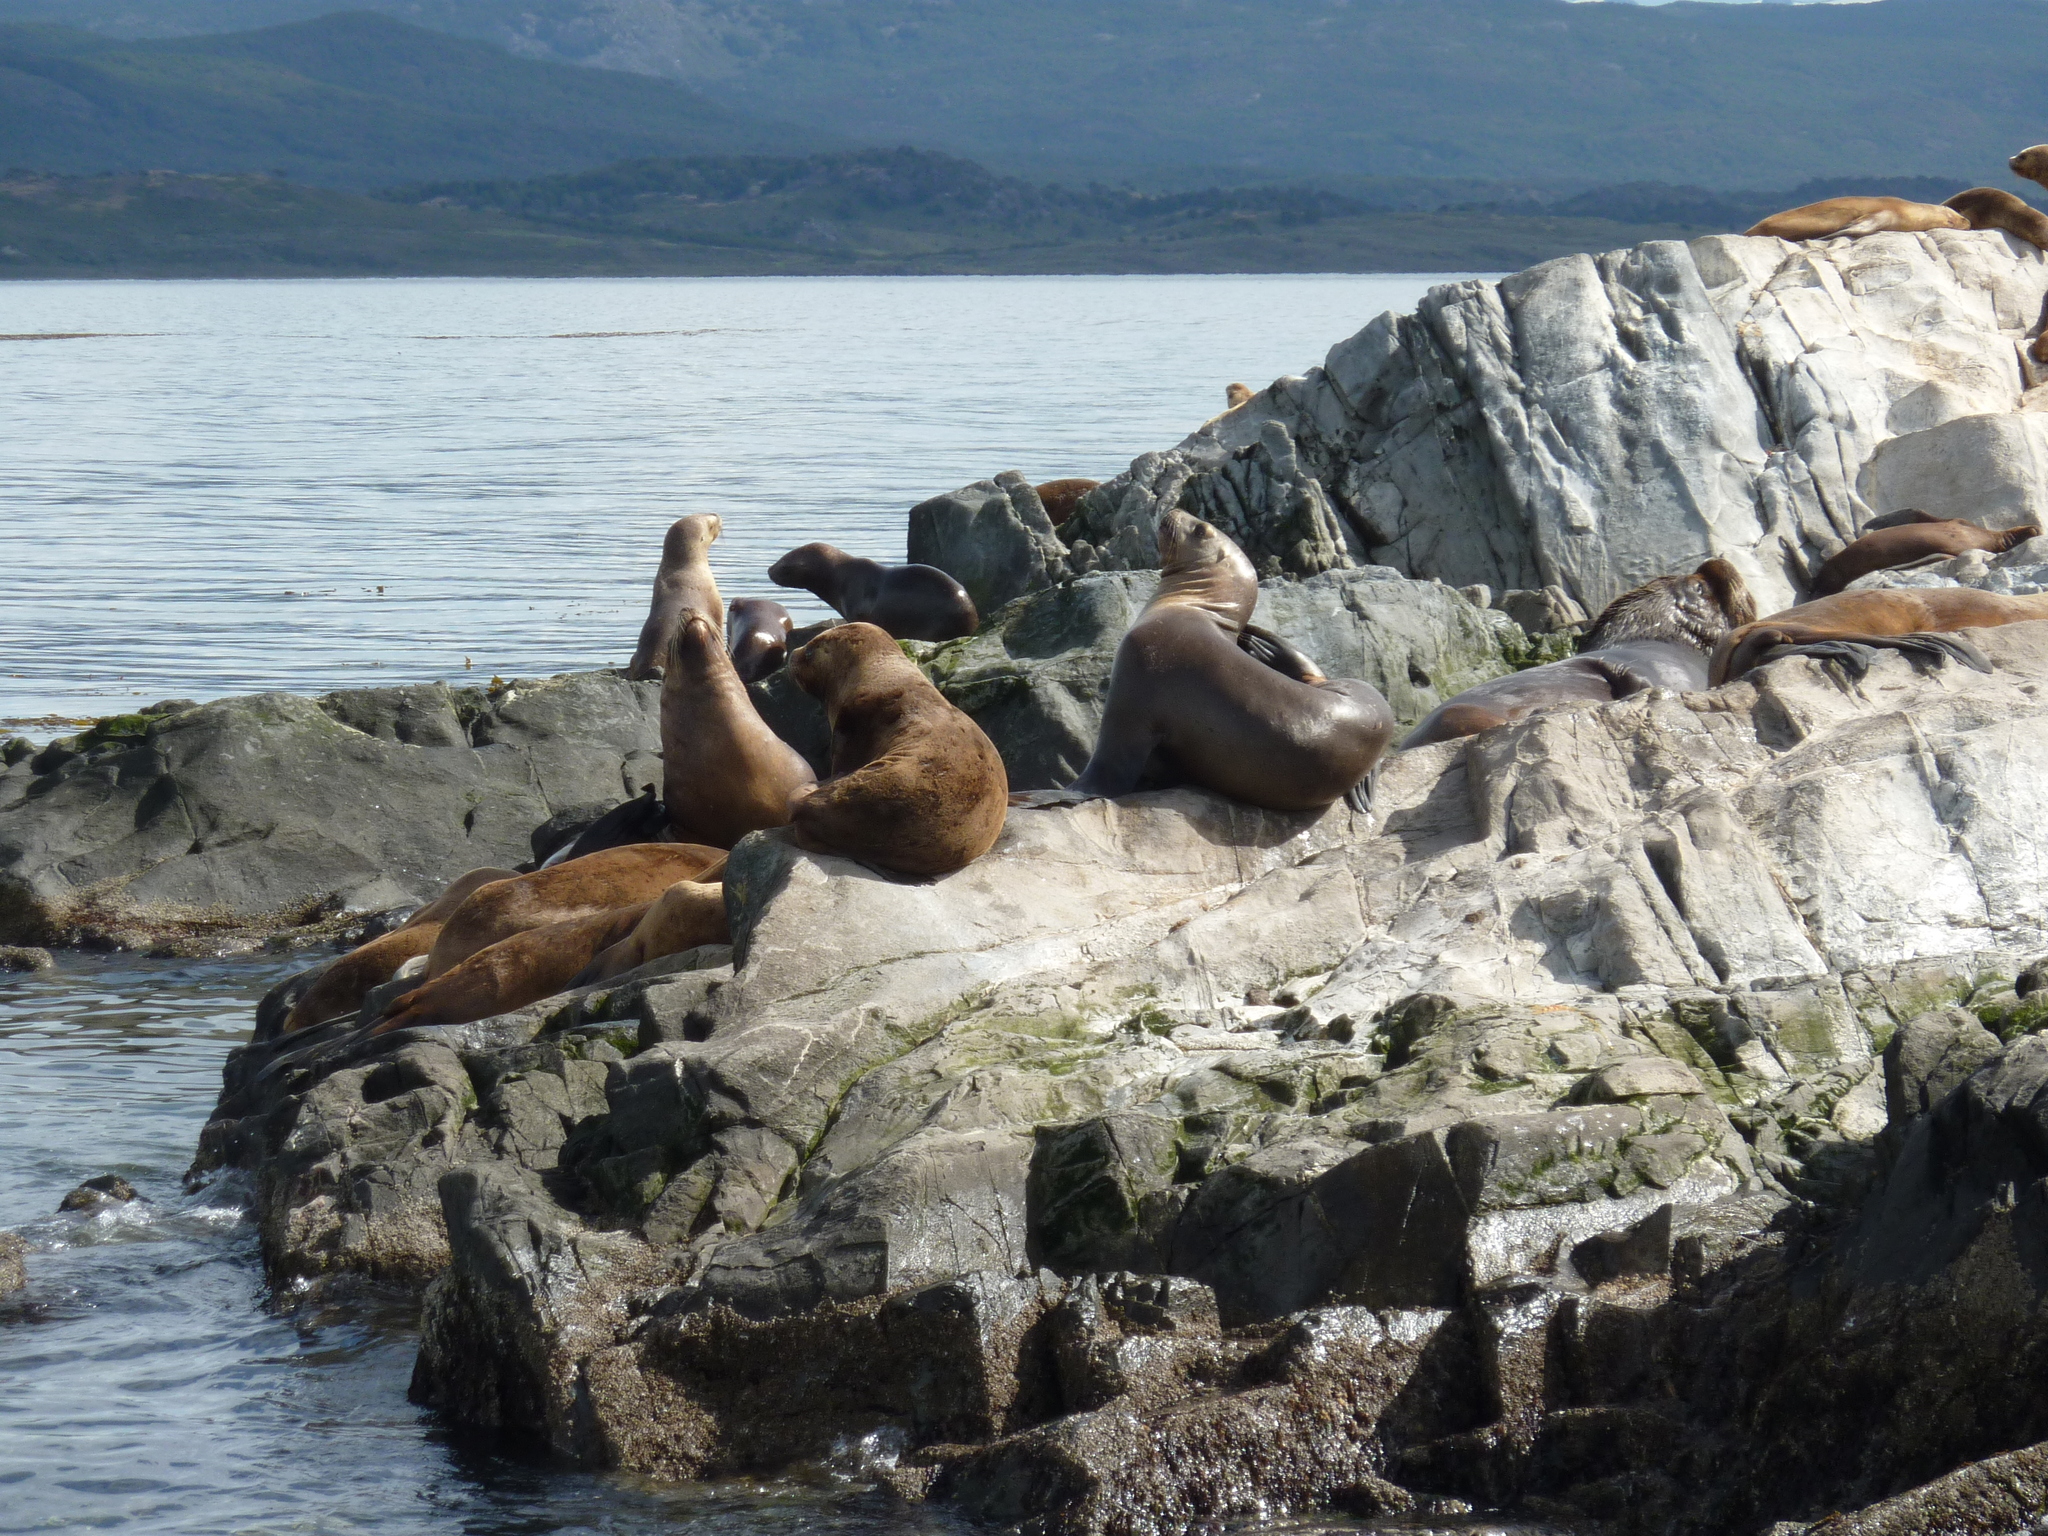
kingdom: Animalia
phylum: Chordata
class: Mammalia
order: Carnivora
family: Otariidae
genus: Otaria
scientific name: Otaria byronia
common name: South american sea lion
